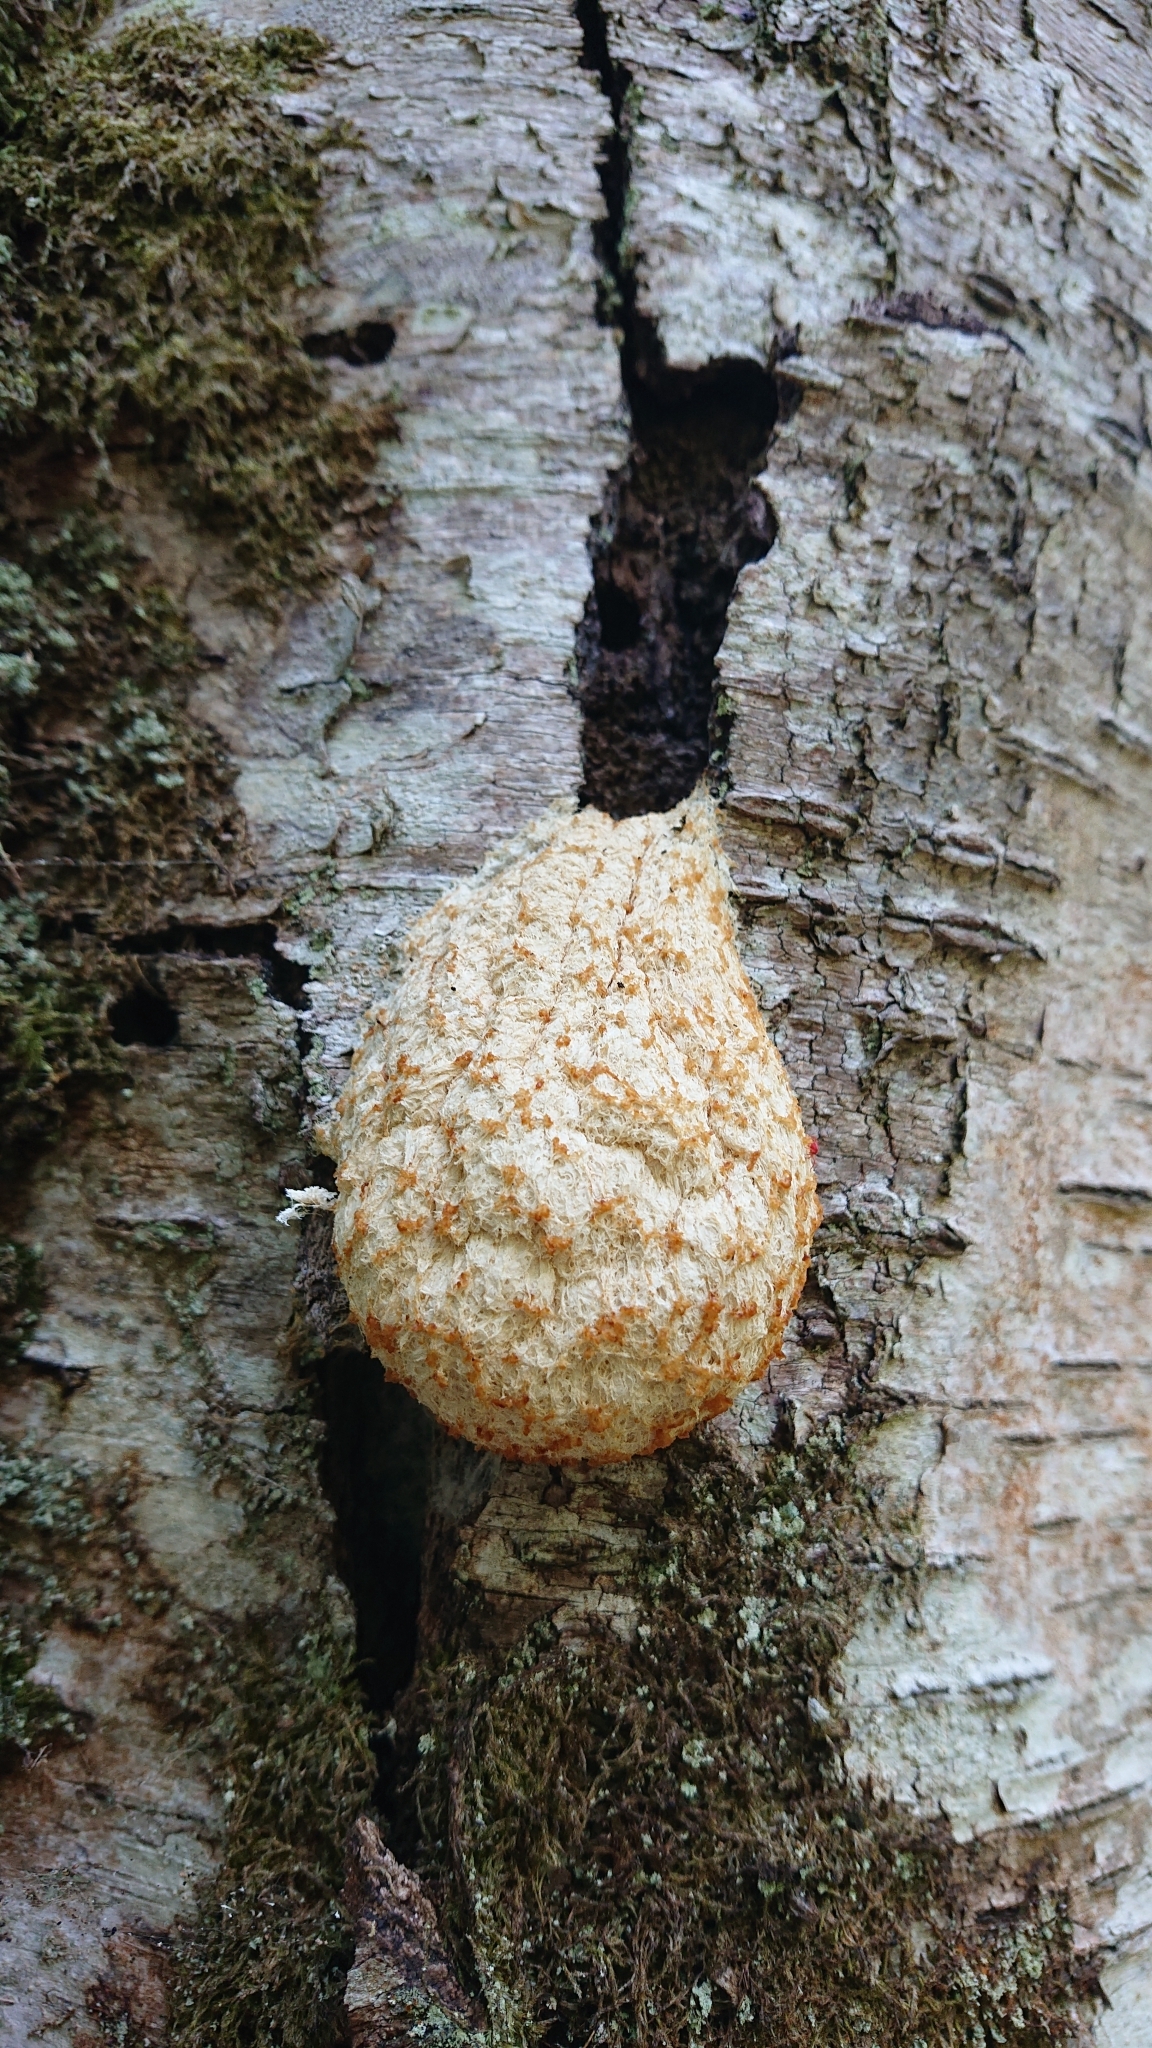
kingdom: Protozoa
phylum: Mycetozoa
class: Myxomycetes
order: Physarales
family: Physaraceae
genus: Fuligo
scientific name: Fuligo septica
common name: Dog vomit slime mold
